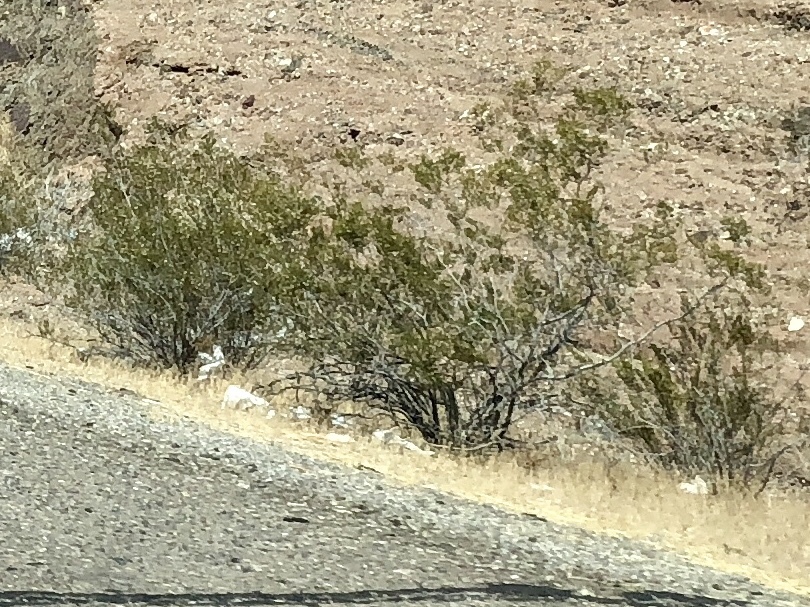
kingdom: Plantae
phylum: Tracheophyta
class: Magnoliopsida
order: Zygophyllales
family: Zygophyllaceae
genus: Larrea
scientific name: Larrea tridentata
